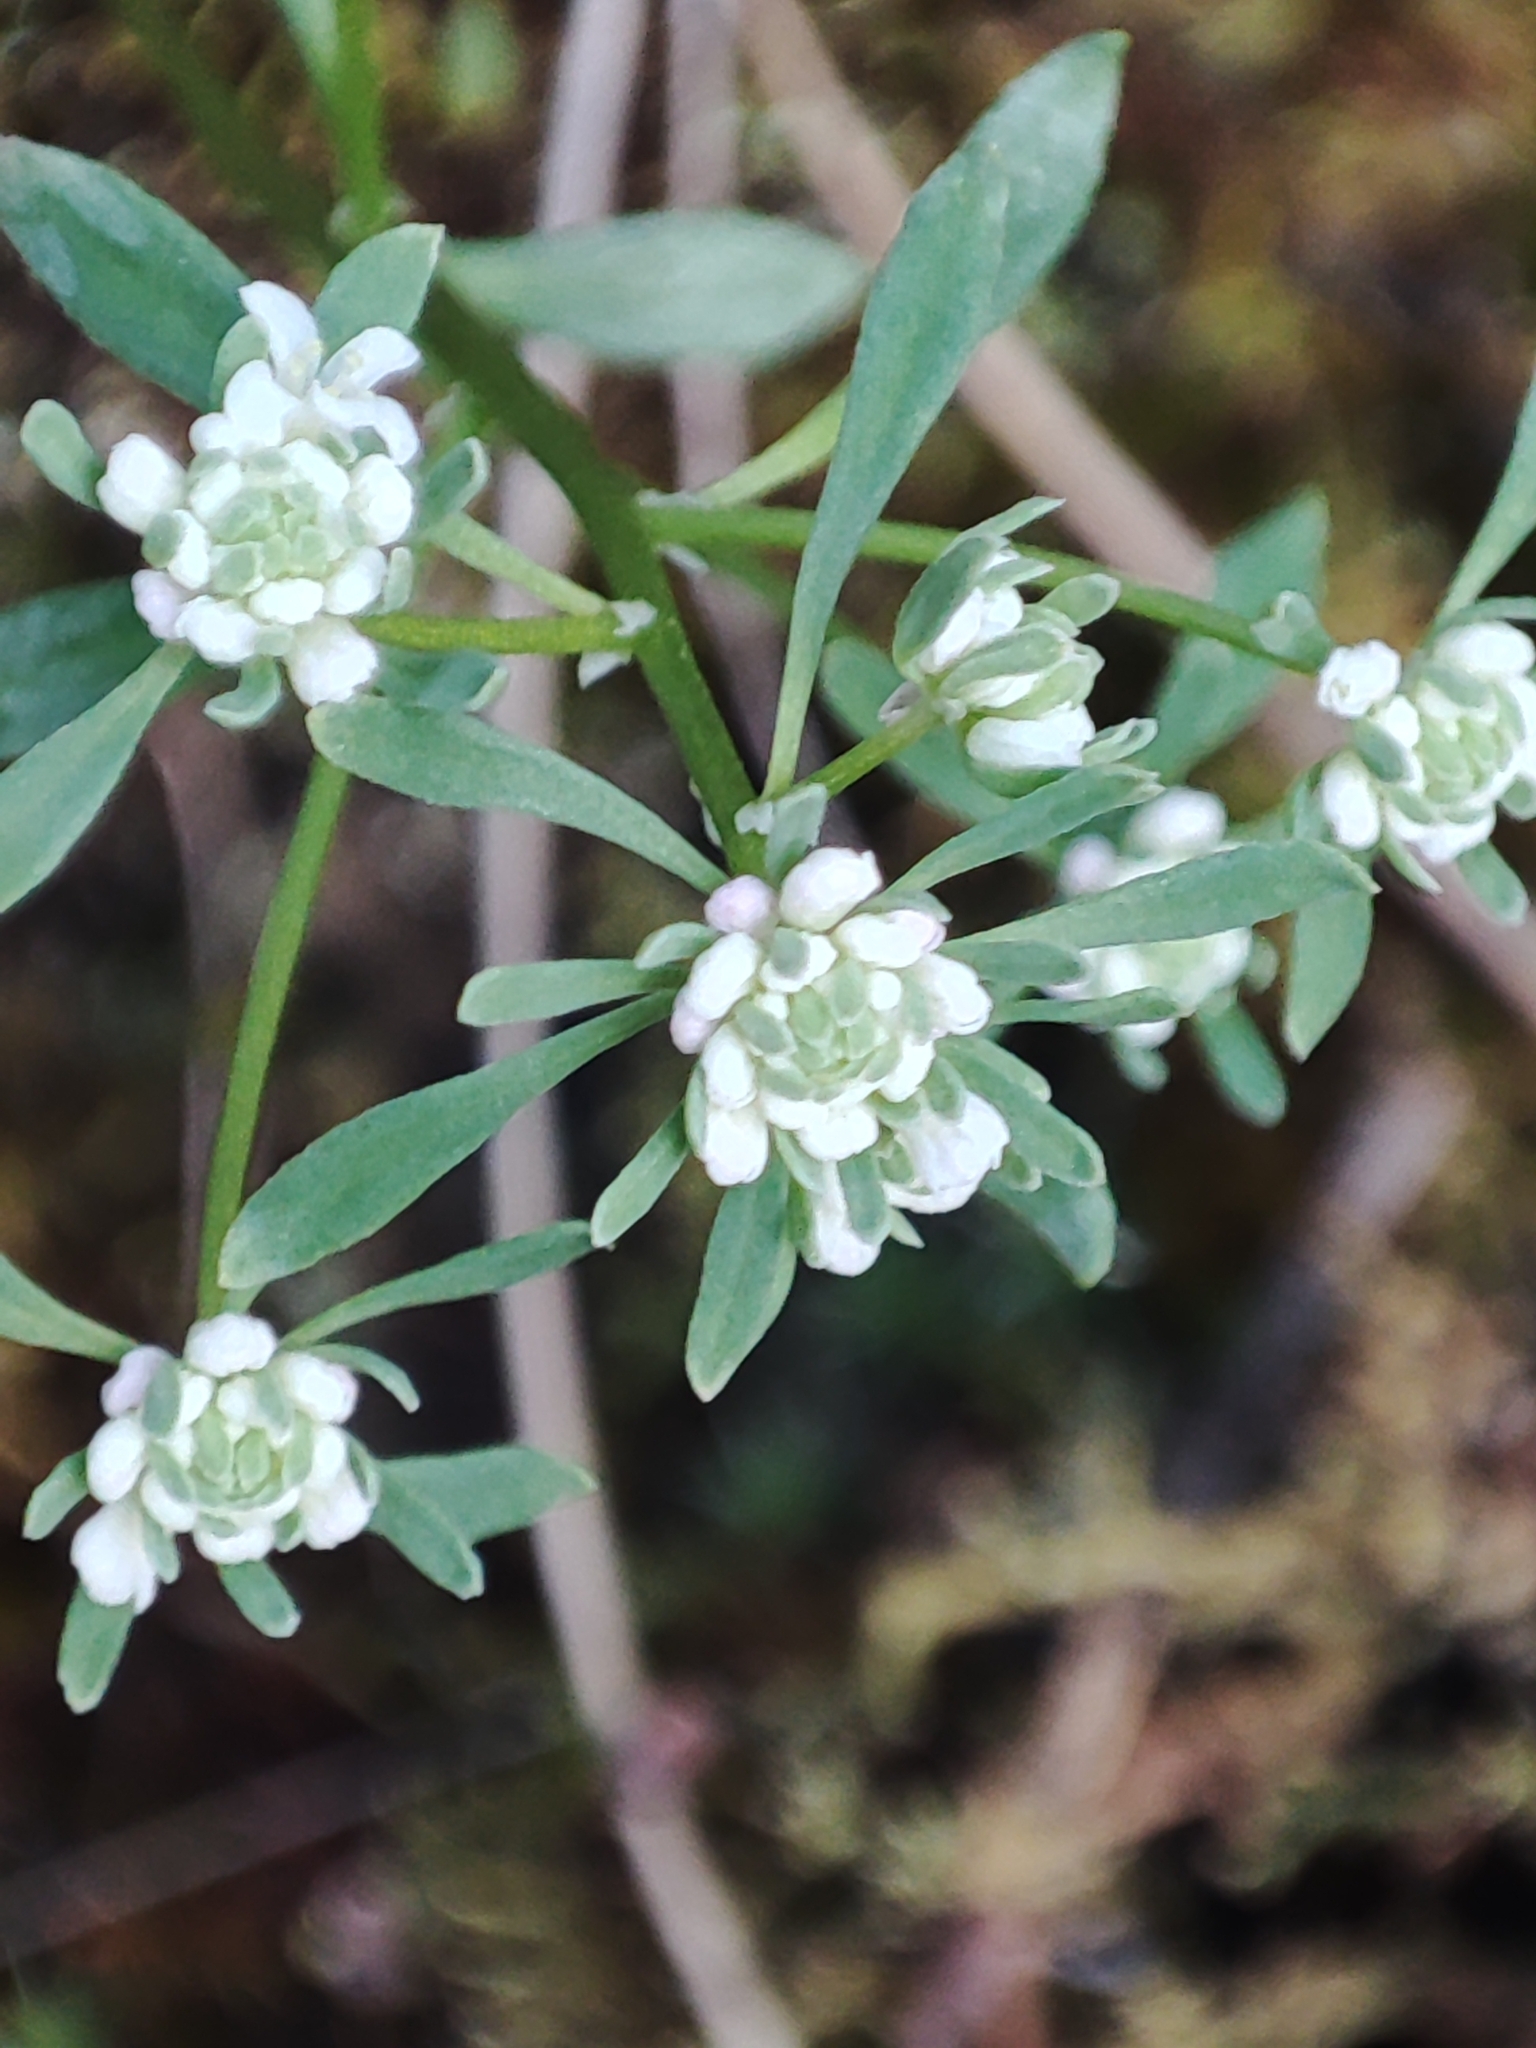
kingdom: Plantae
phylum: Tracheophyta
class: Magnoliopsida
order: Malpighiales
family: Phyllanthaceae
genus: Poranthera
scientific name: Poranthera microphylla
